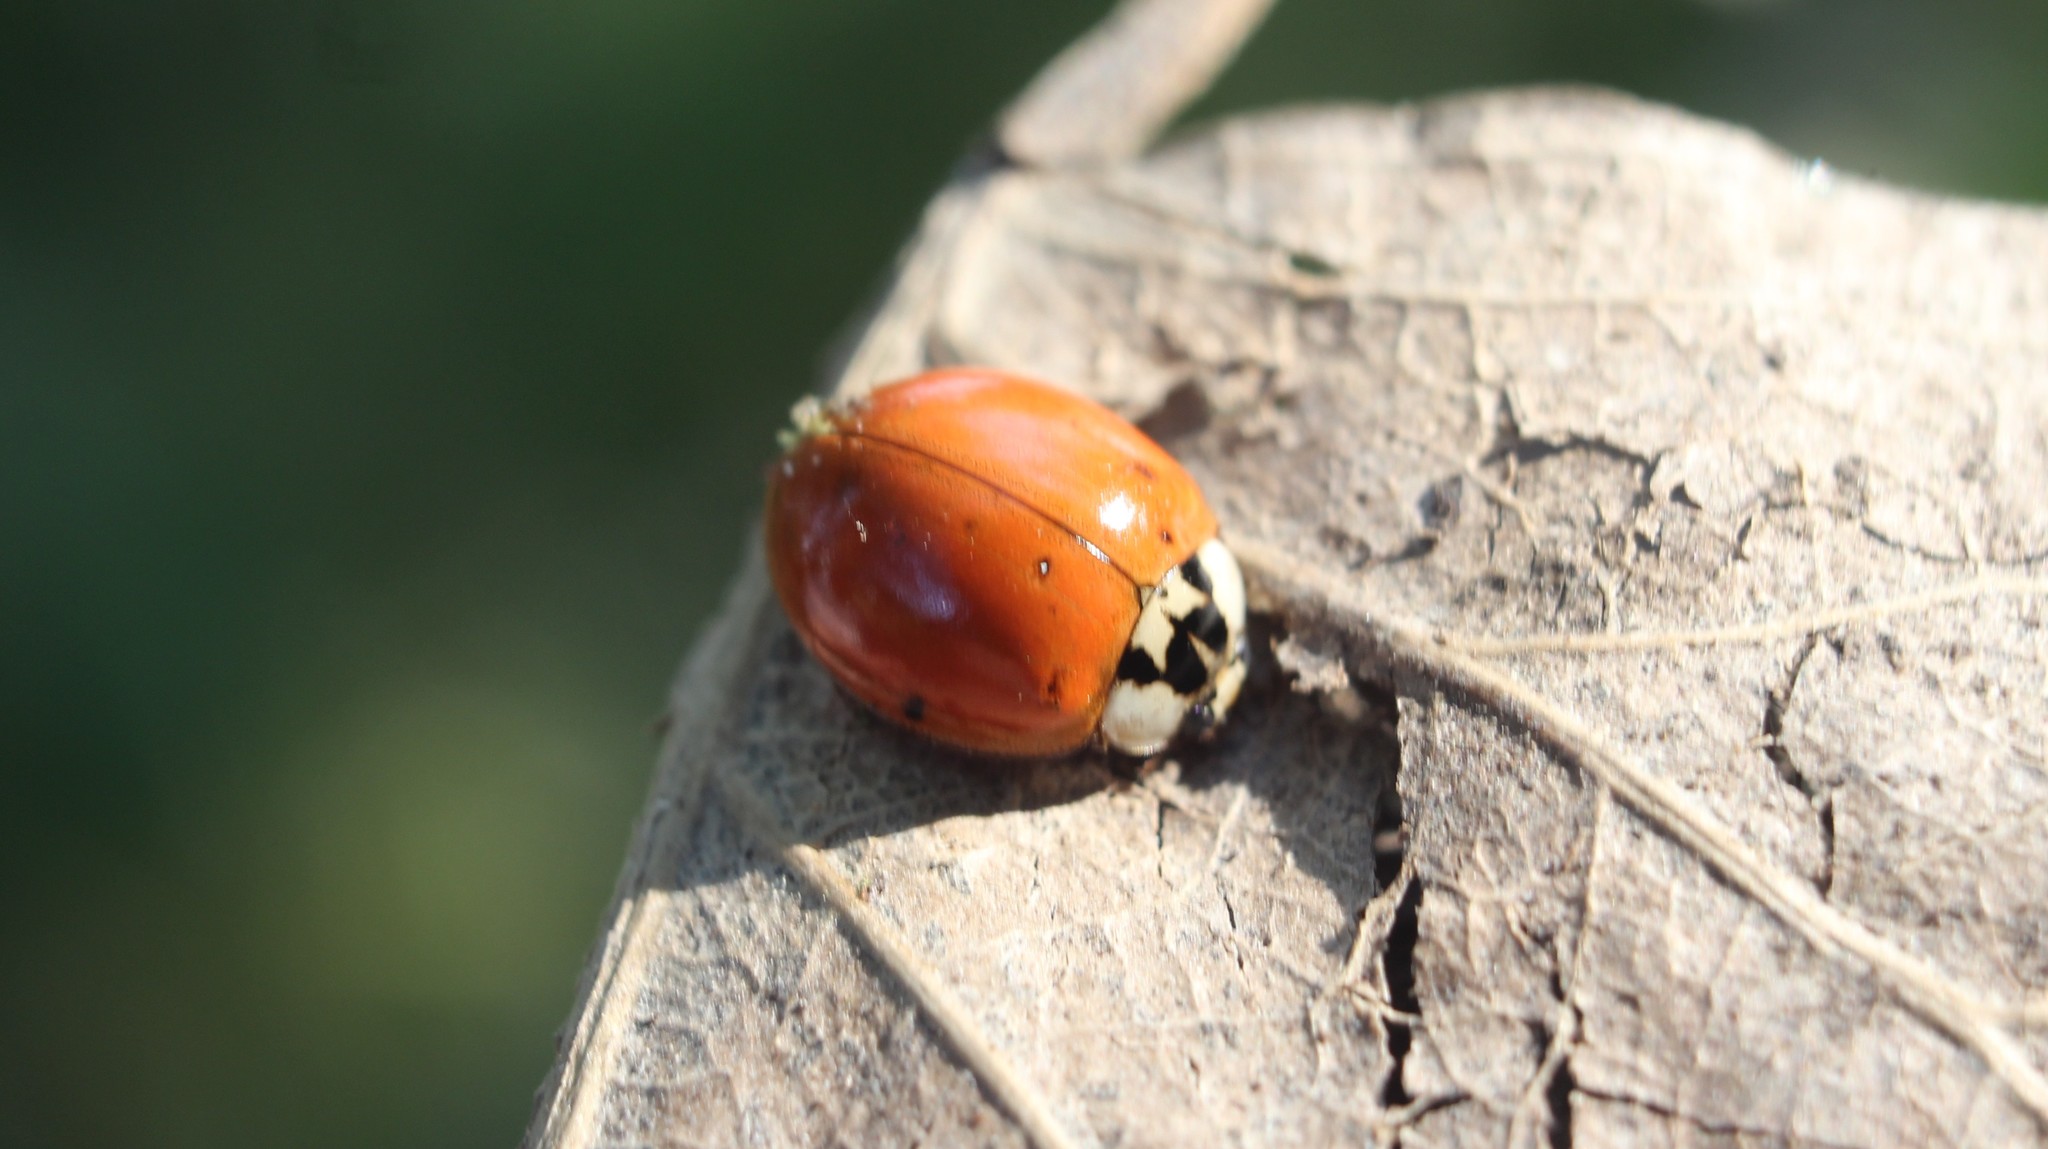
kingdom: Animalia
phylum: Arthropoda
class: Insecta
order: Coleoptera
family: Coccinellidae
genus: Harmonia
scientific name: Harmonia axyridis
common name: Harlequin ladybird
